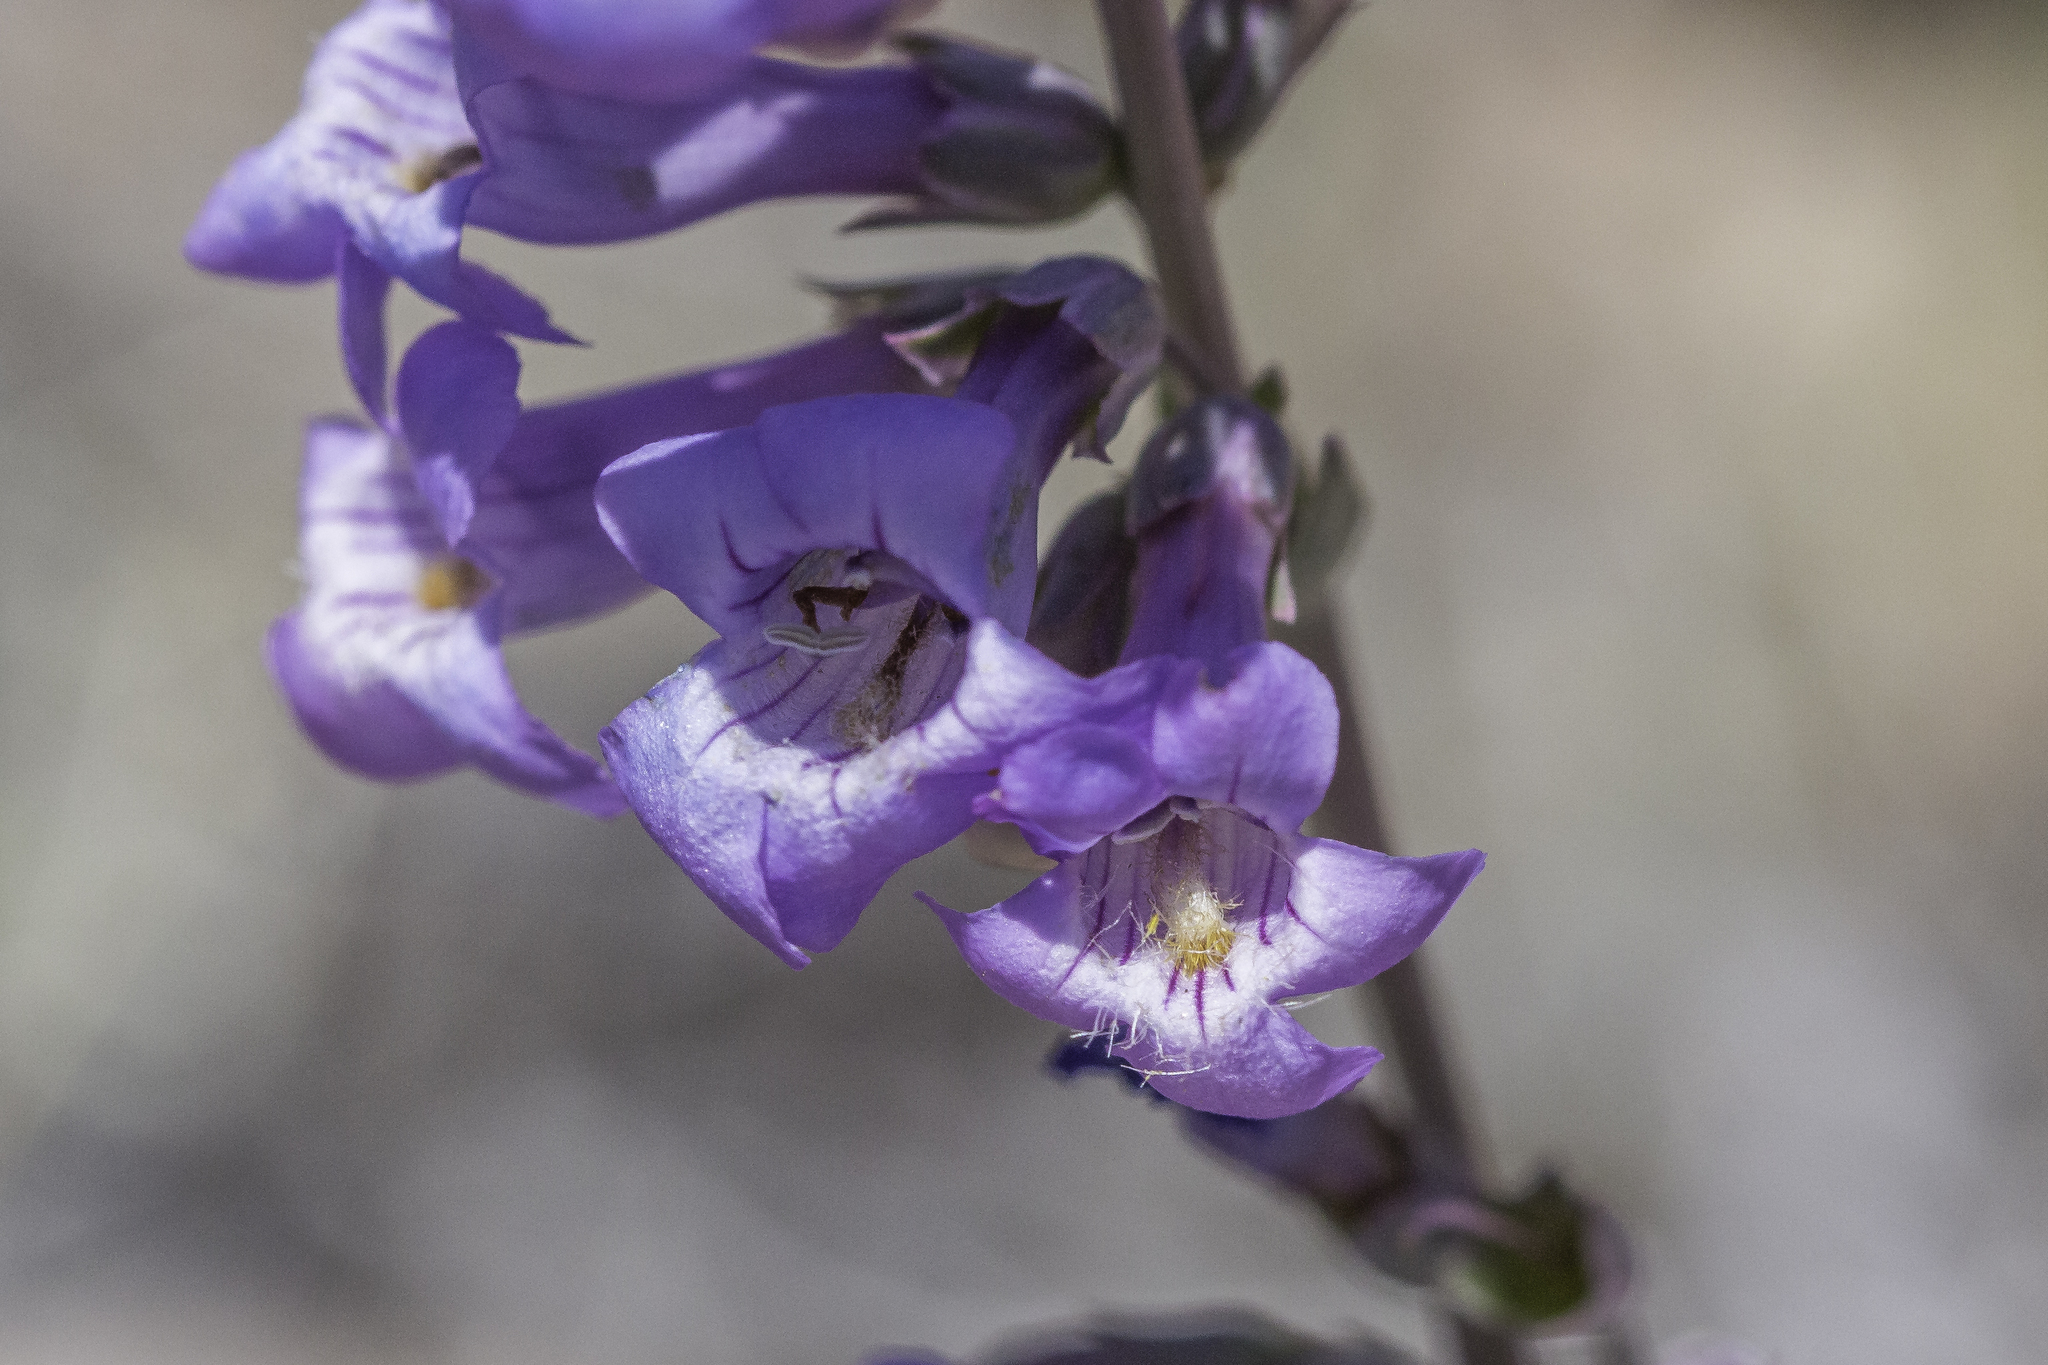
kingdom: Plantae
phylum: Tracheophyta
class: Magnoliopsida
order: Lamiales
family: Plantaginaceae
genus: Penstemon
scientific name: Penstemon secundiflorus
